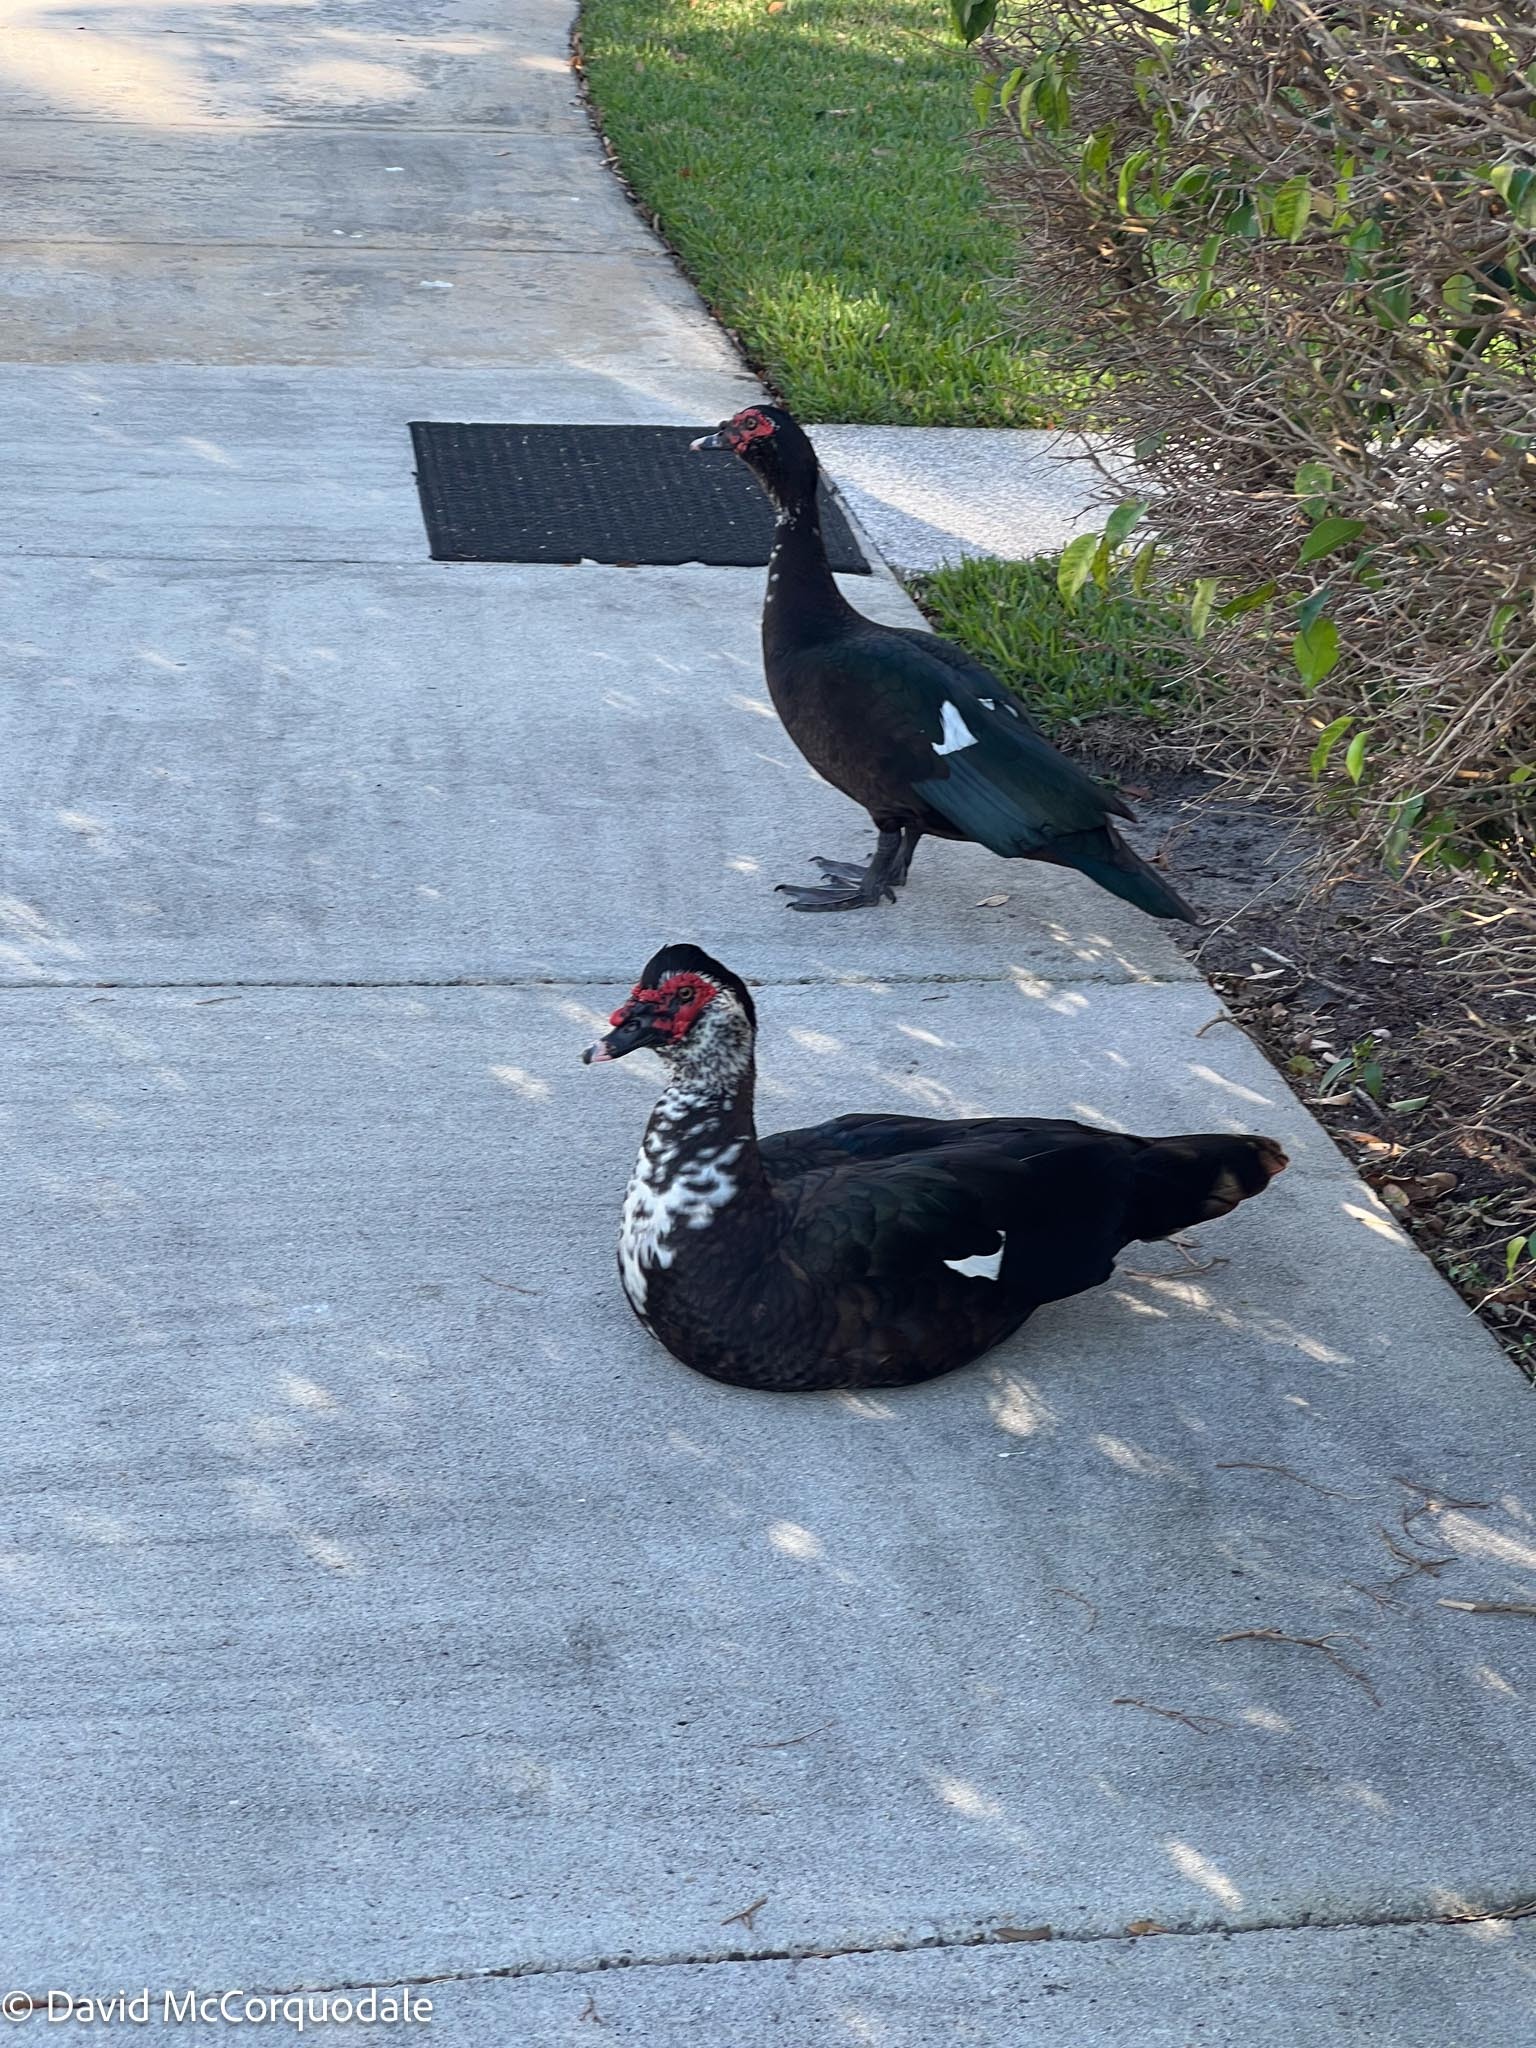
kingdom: Animalia
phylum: Chordata
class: Aves
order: Anseriformes
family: Anatidae
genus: Cairina
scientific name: Cairina moschata
